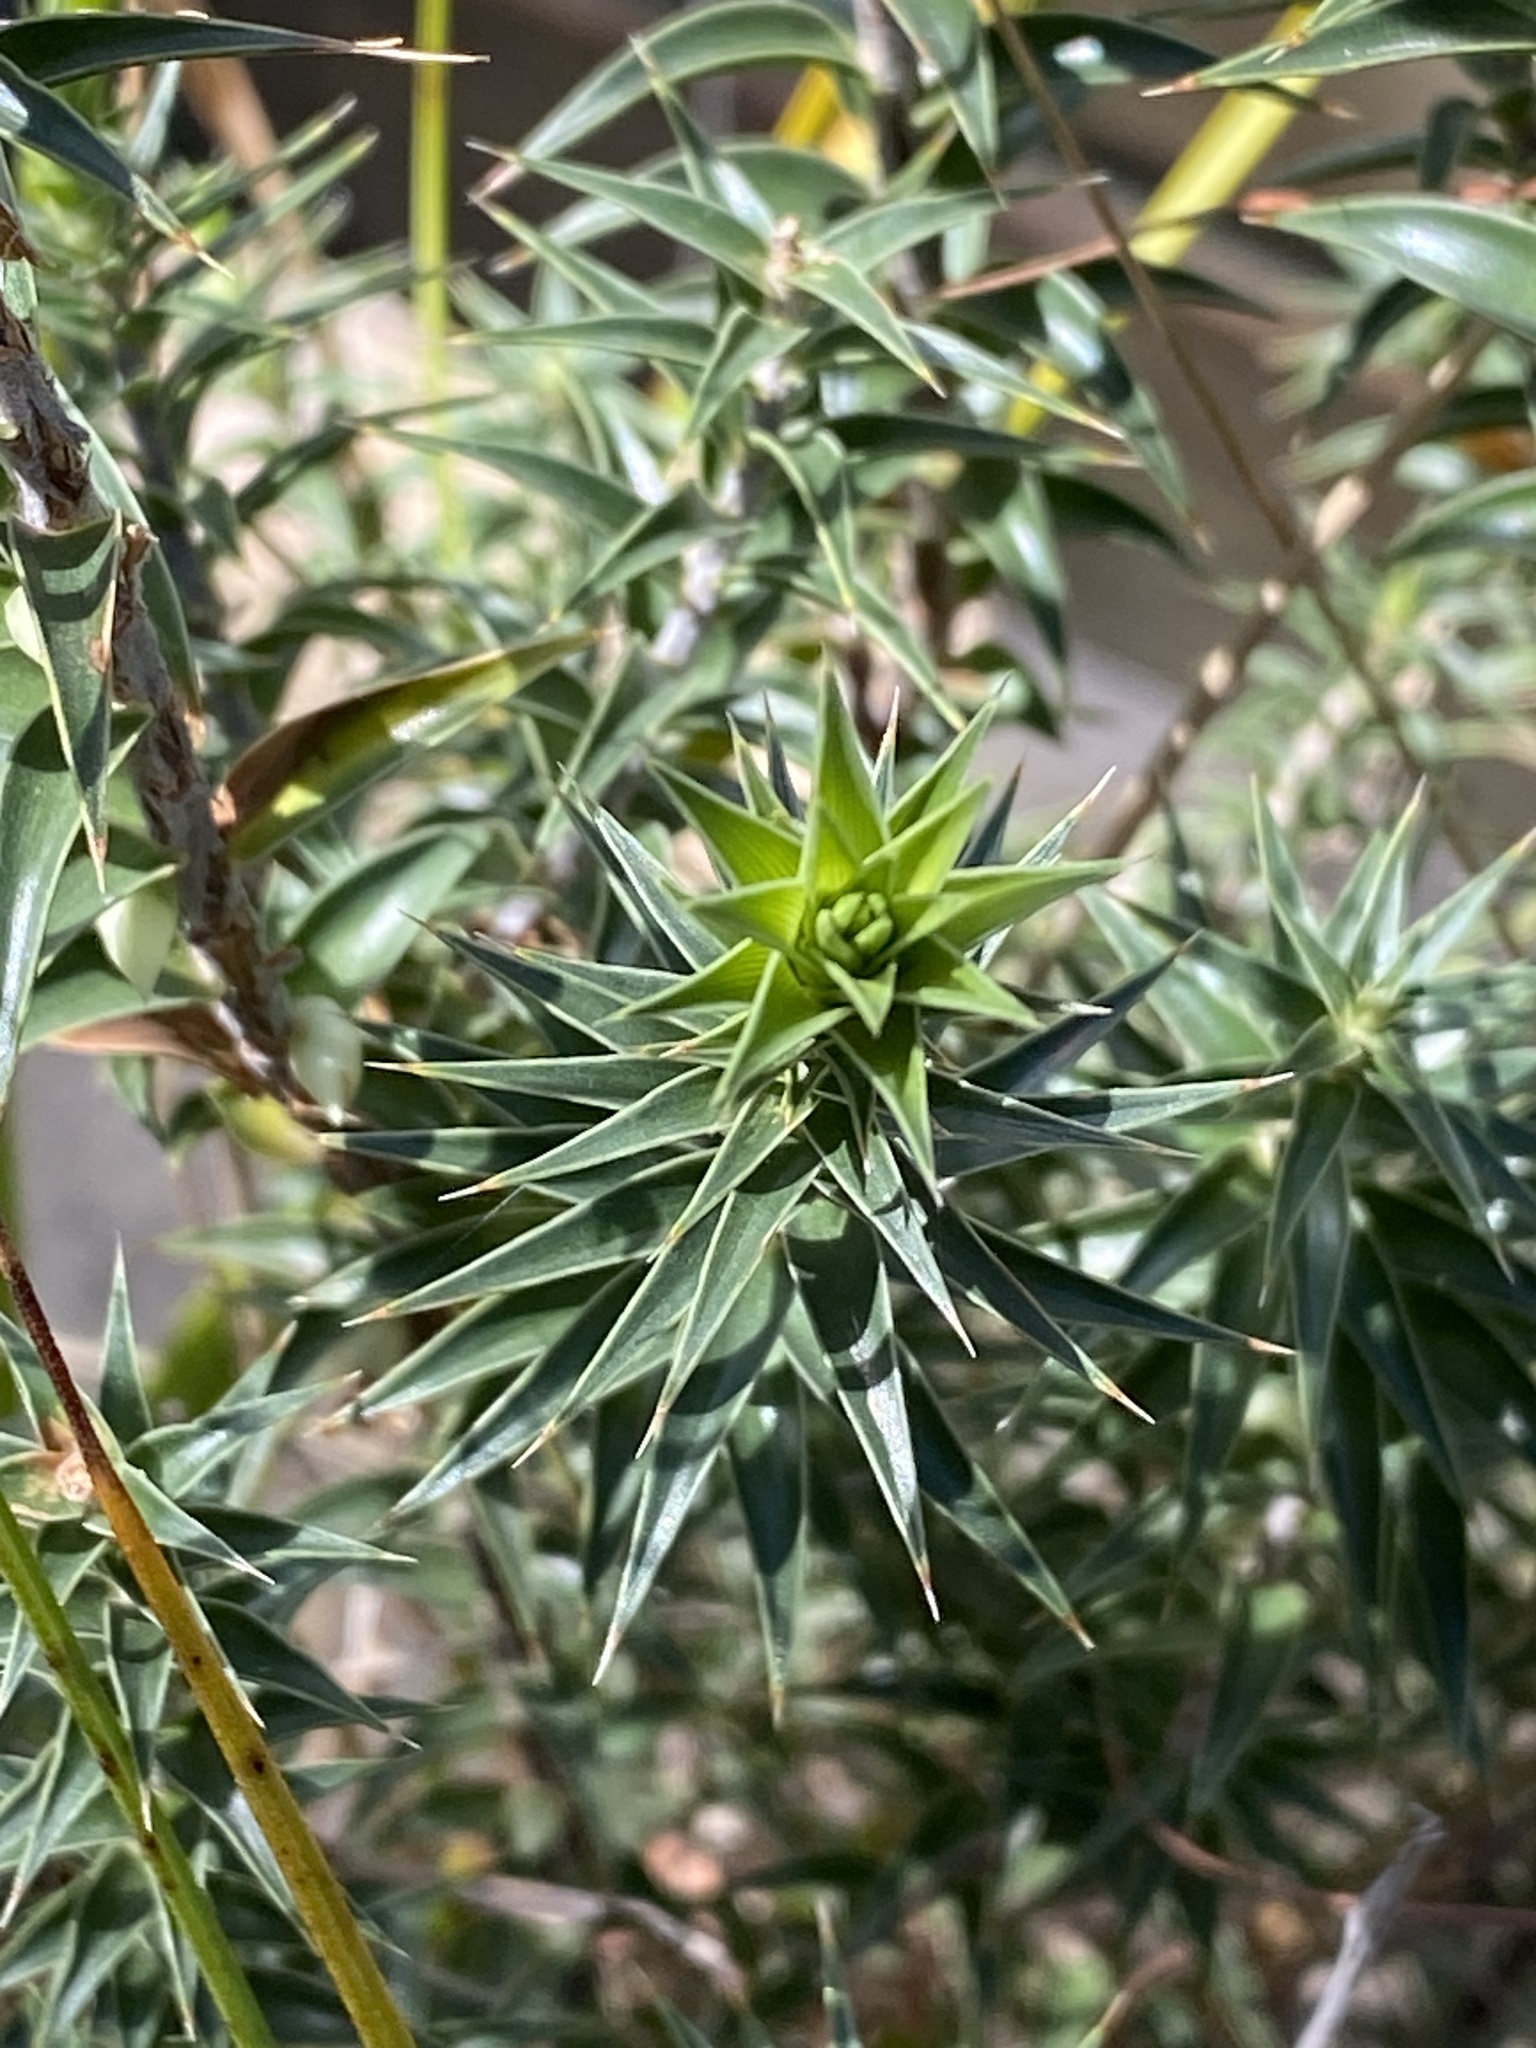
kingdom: Plantae
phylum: Tracheophyta
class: Magnoliopsida
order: Ericales
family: Ericaceae
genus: Melichrus
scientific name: Melichrus urceolatus
